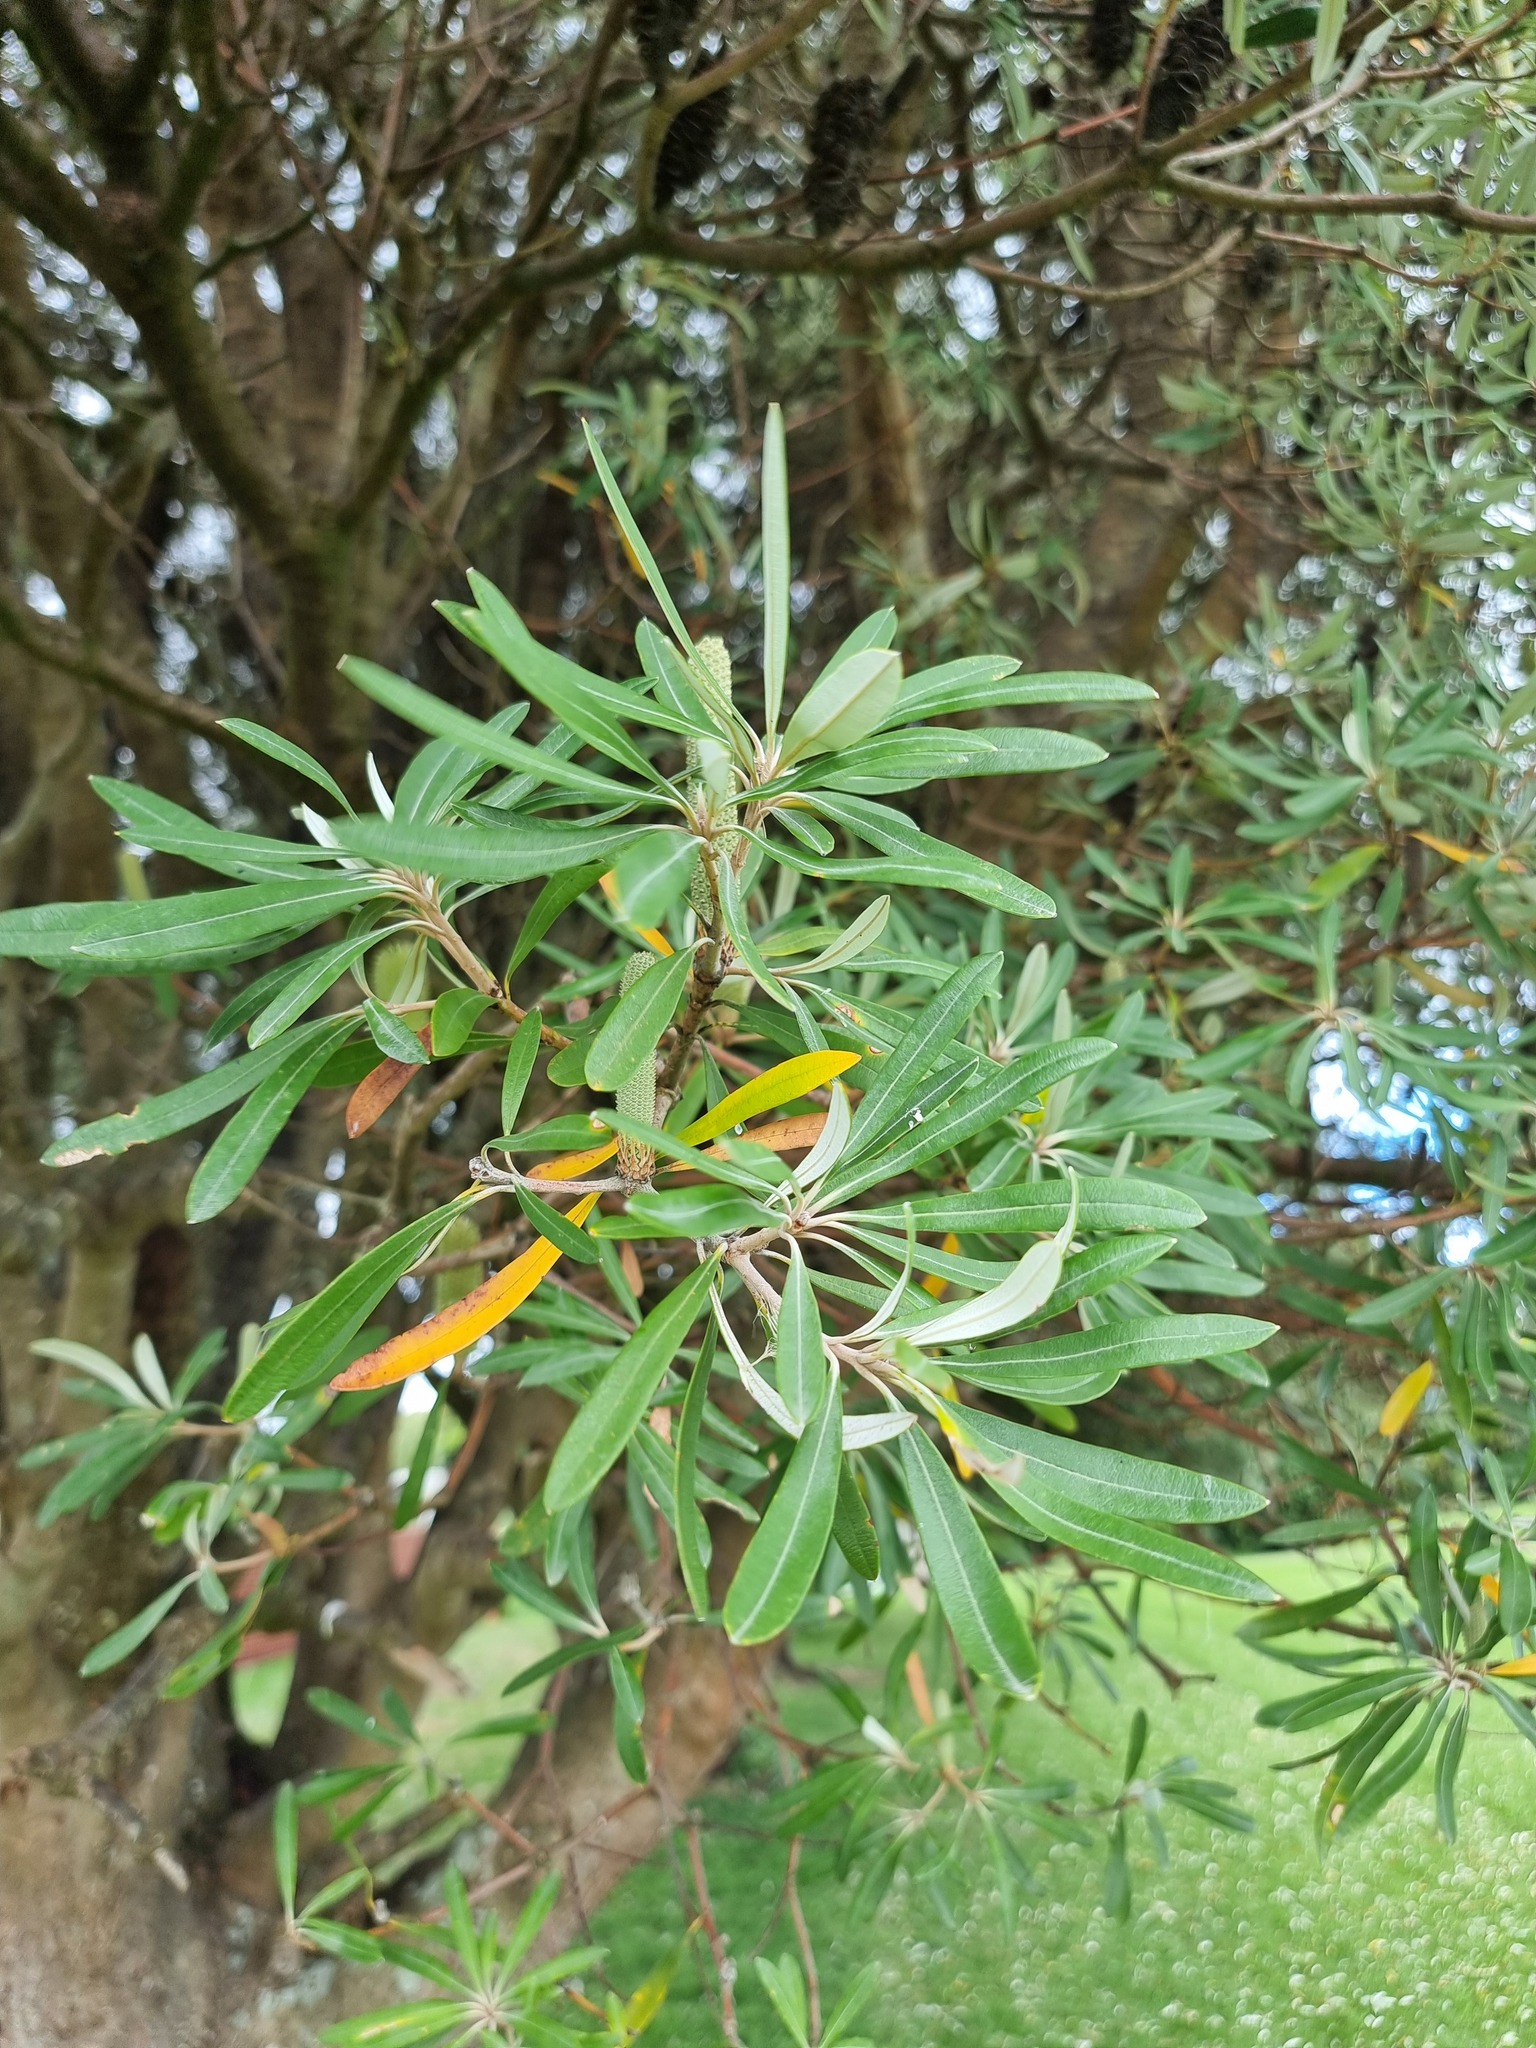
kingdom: Plantae
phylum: Tracheophyta
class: Magnoliopsida
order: Proteales
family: Proteaceae
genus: Banksia
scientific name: Banksia integrifolia
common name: White-honeysuckle
